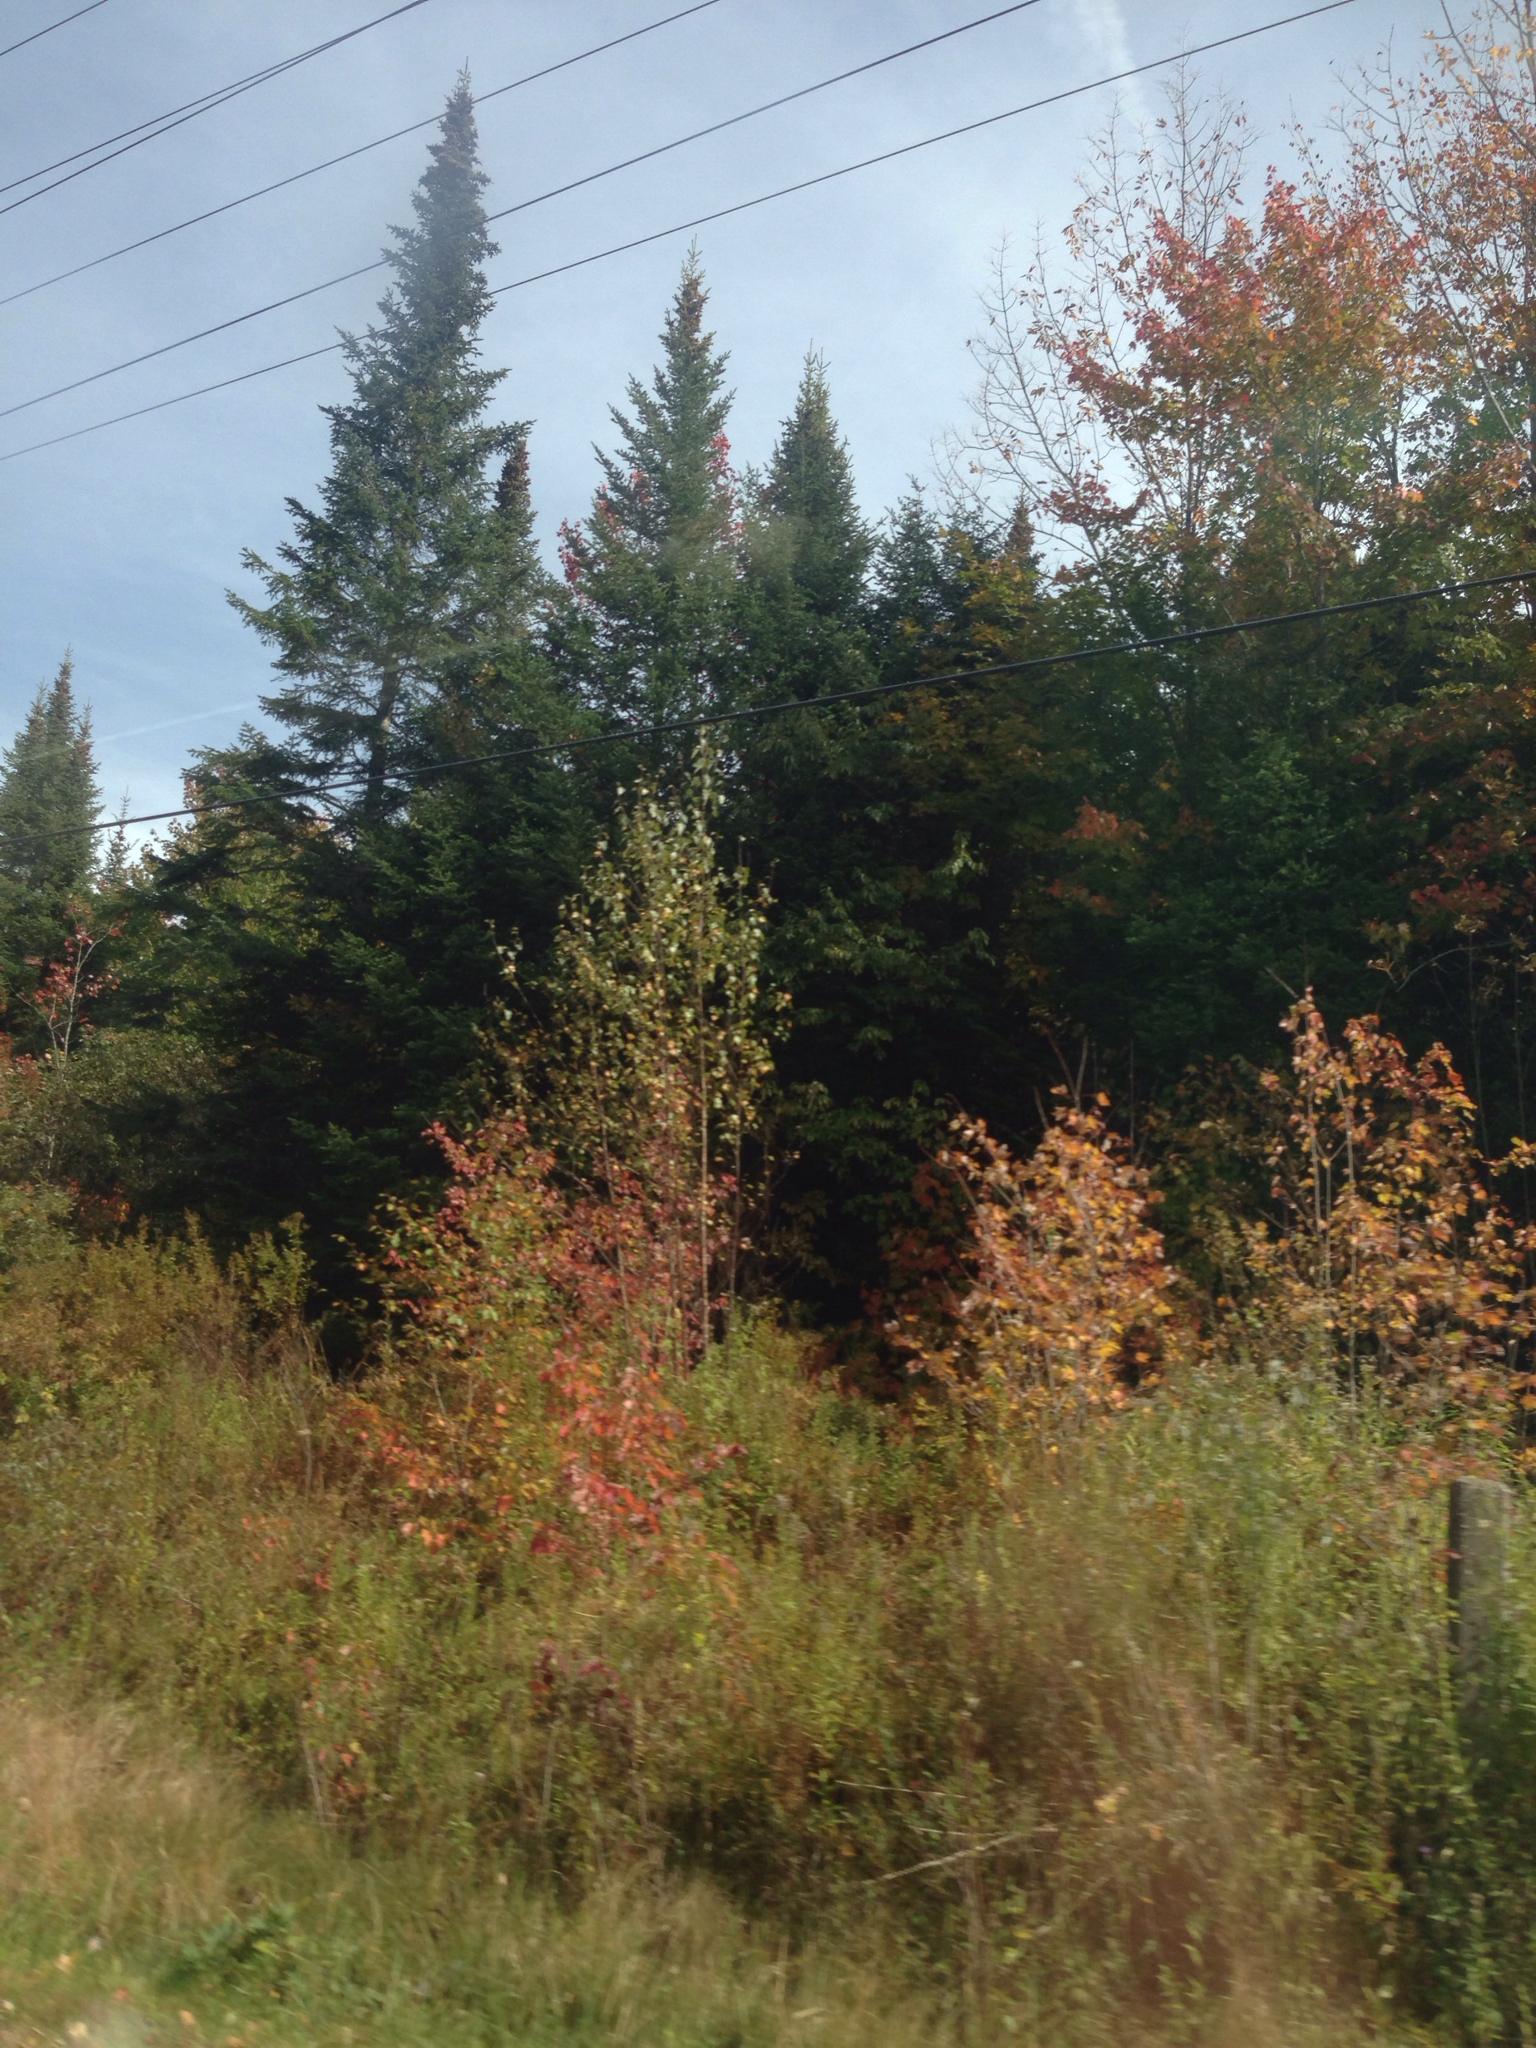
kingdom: Plantae
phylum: Tracheophyta
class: Pinopsida
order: Pinales
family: Pinaceae
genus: Abies
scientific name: Abies balsamea
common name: Balsam fir
